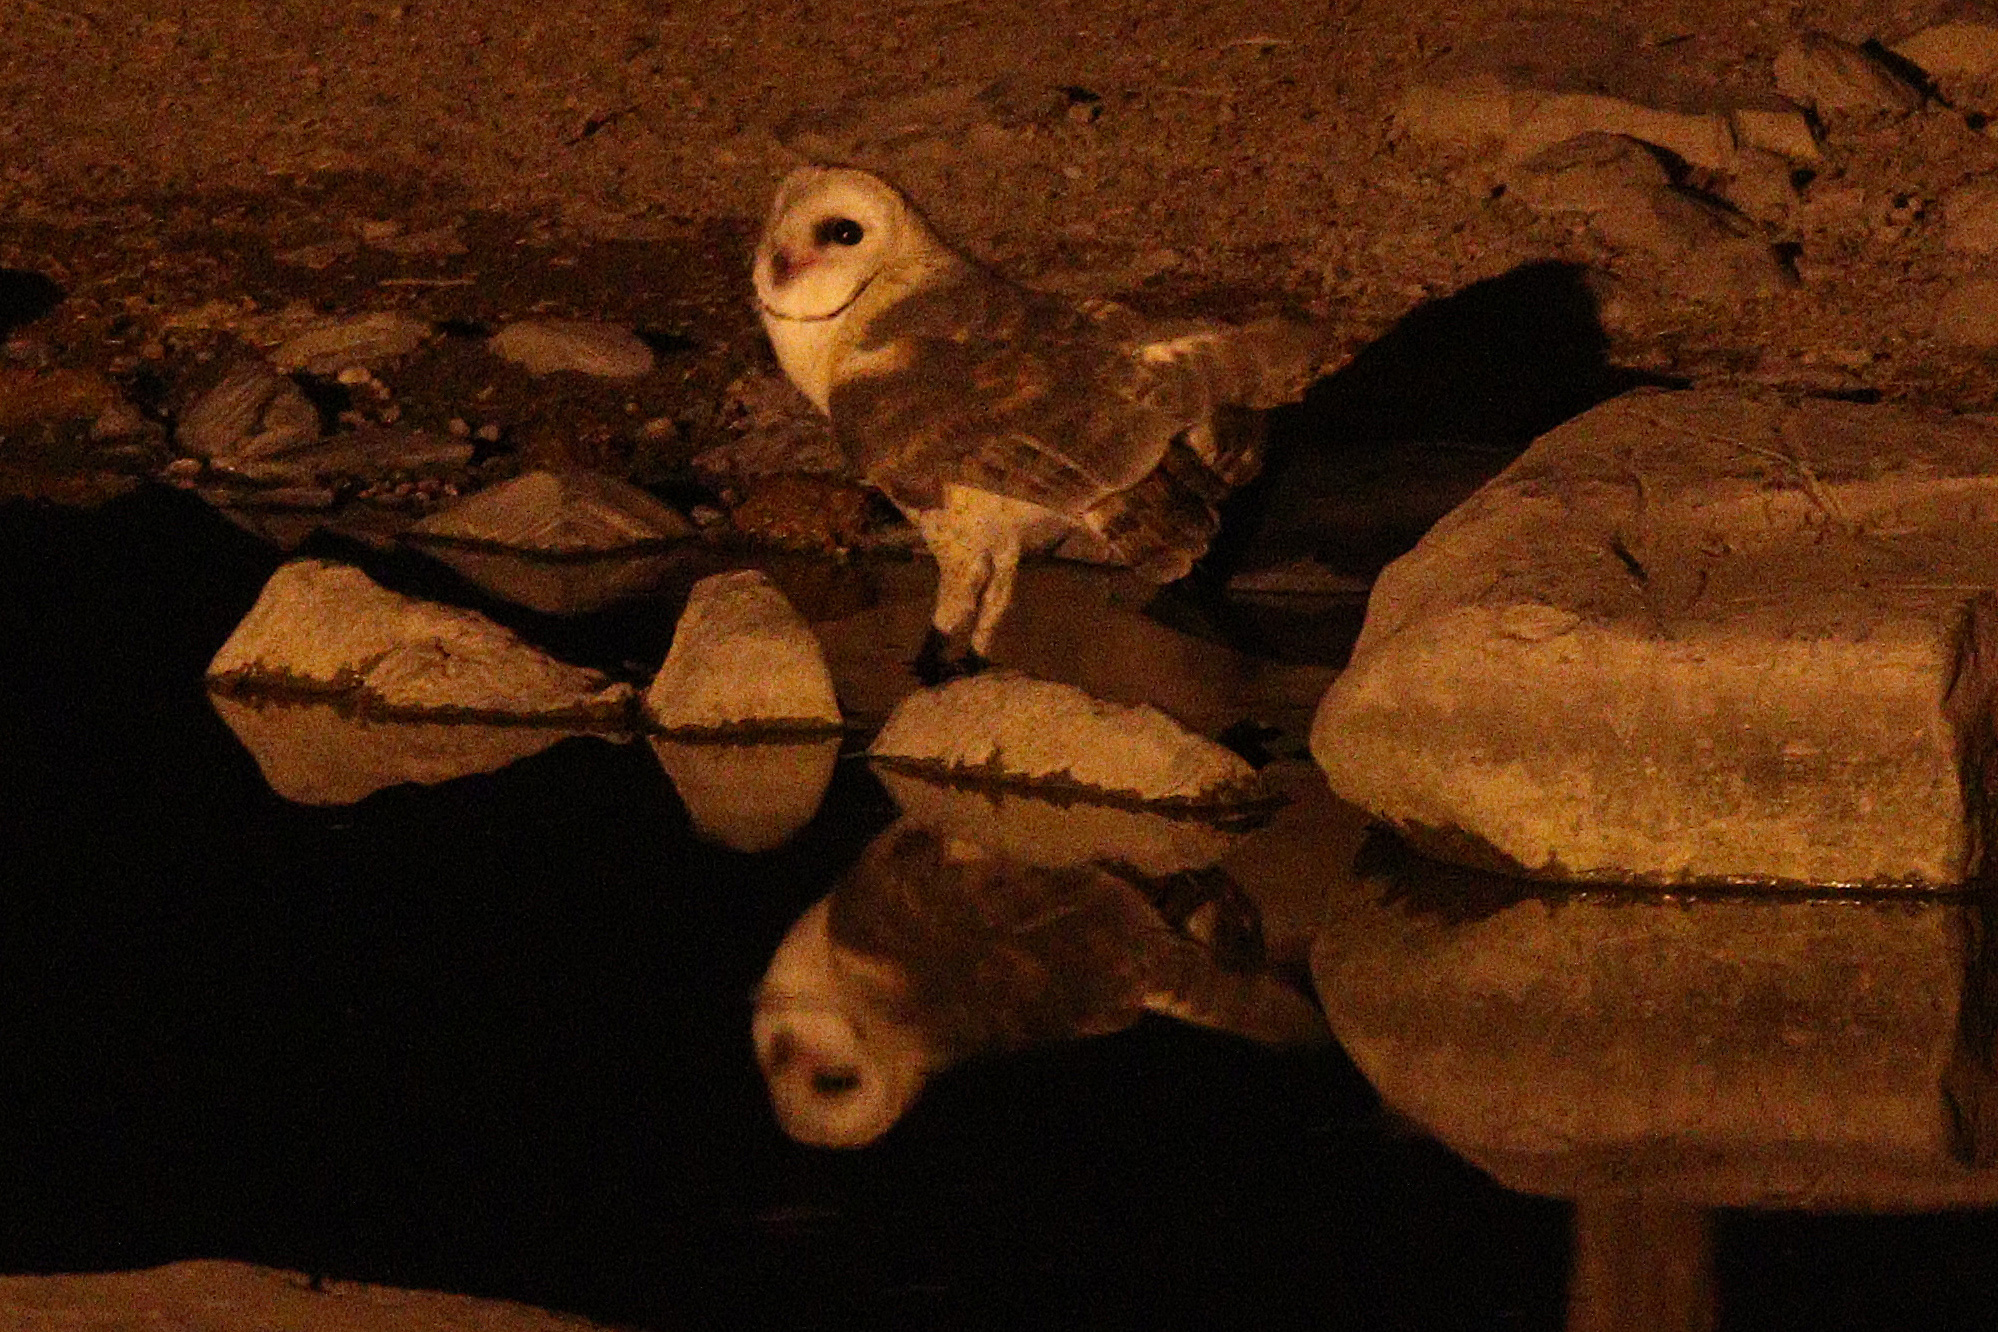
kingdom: Animalia
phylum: Chordata
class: Aves
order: Strigiformes
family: Tytonidae
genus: Tyto
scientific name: Tyto alba
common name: Barn owl
